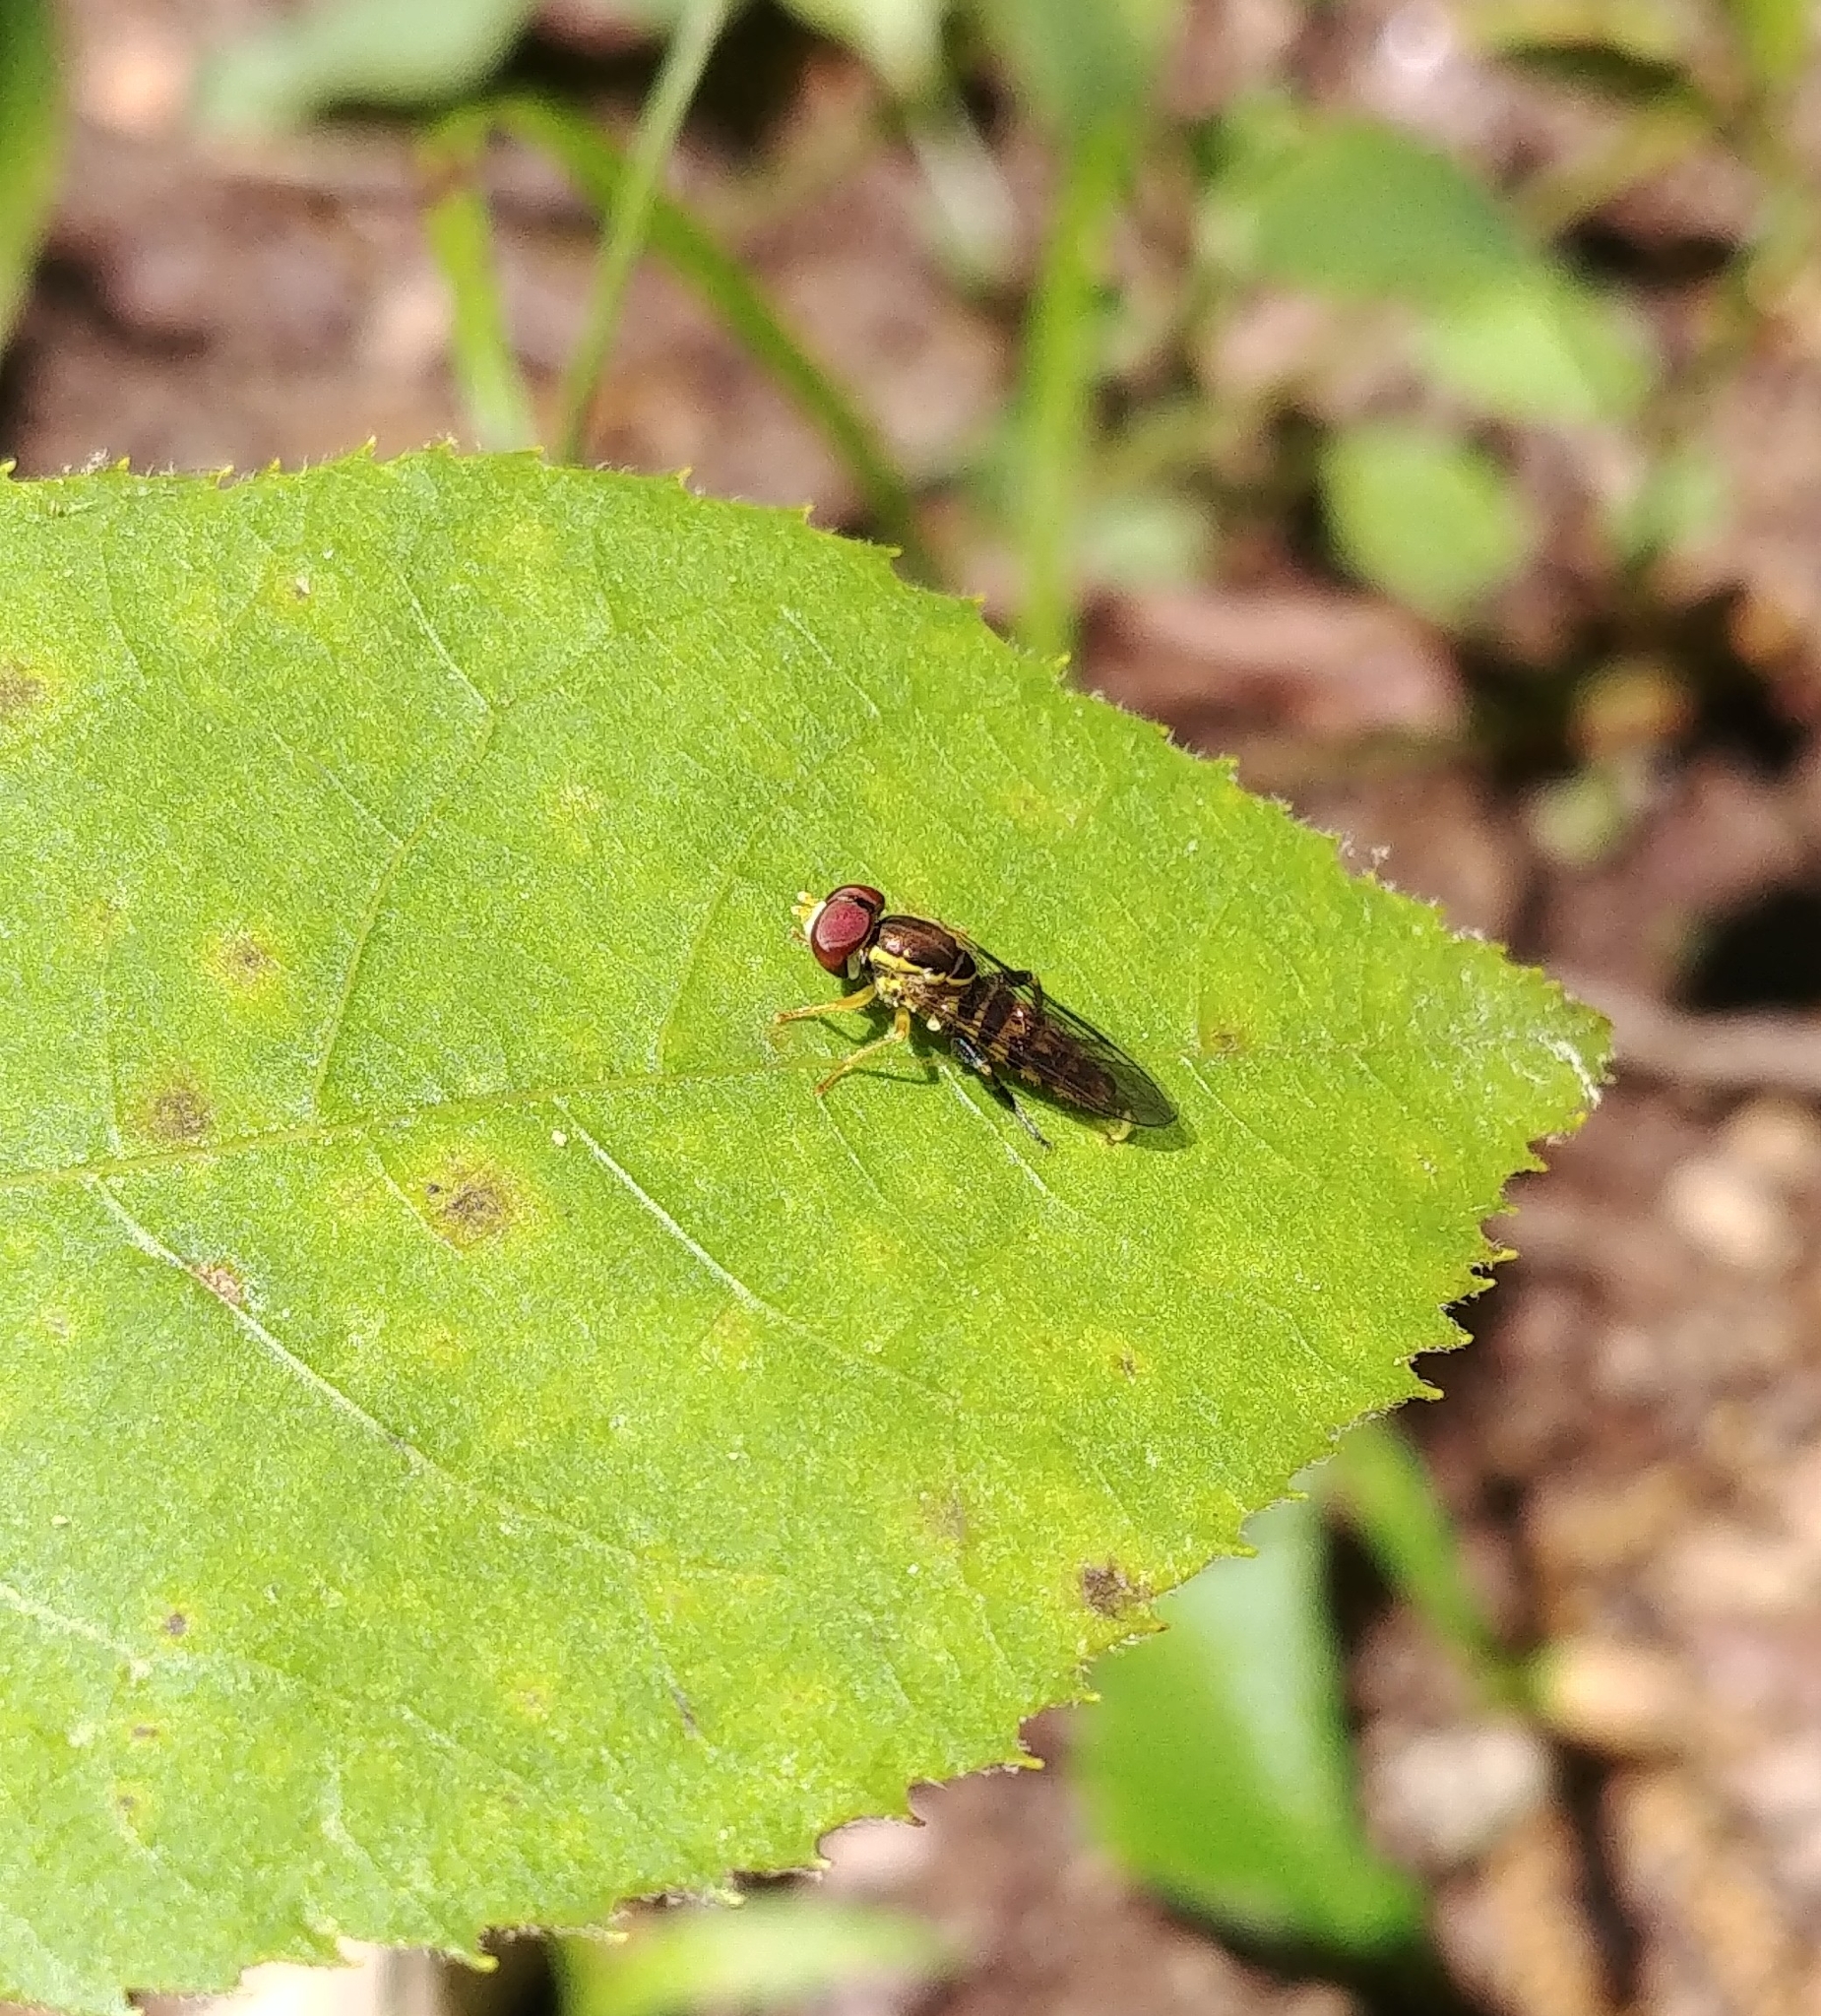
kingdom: Animalia
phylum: Arthropoda
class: Insecta
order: Diptera
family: Syrphidae
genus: Toxomerus
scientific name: Toxomerus geminatus
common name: Eastern calligrapher
